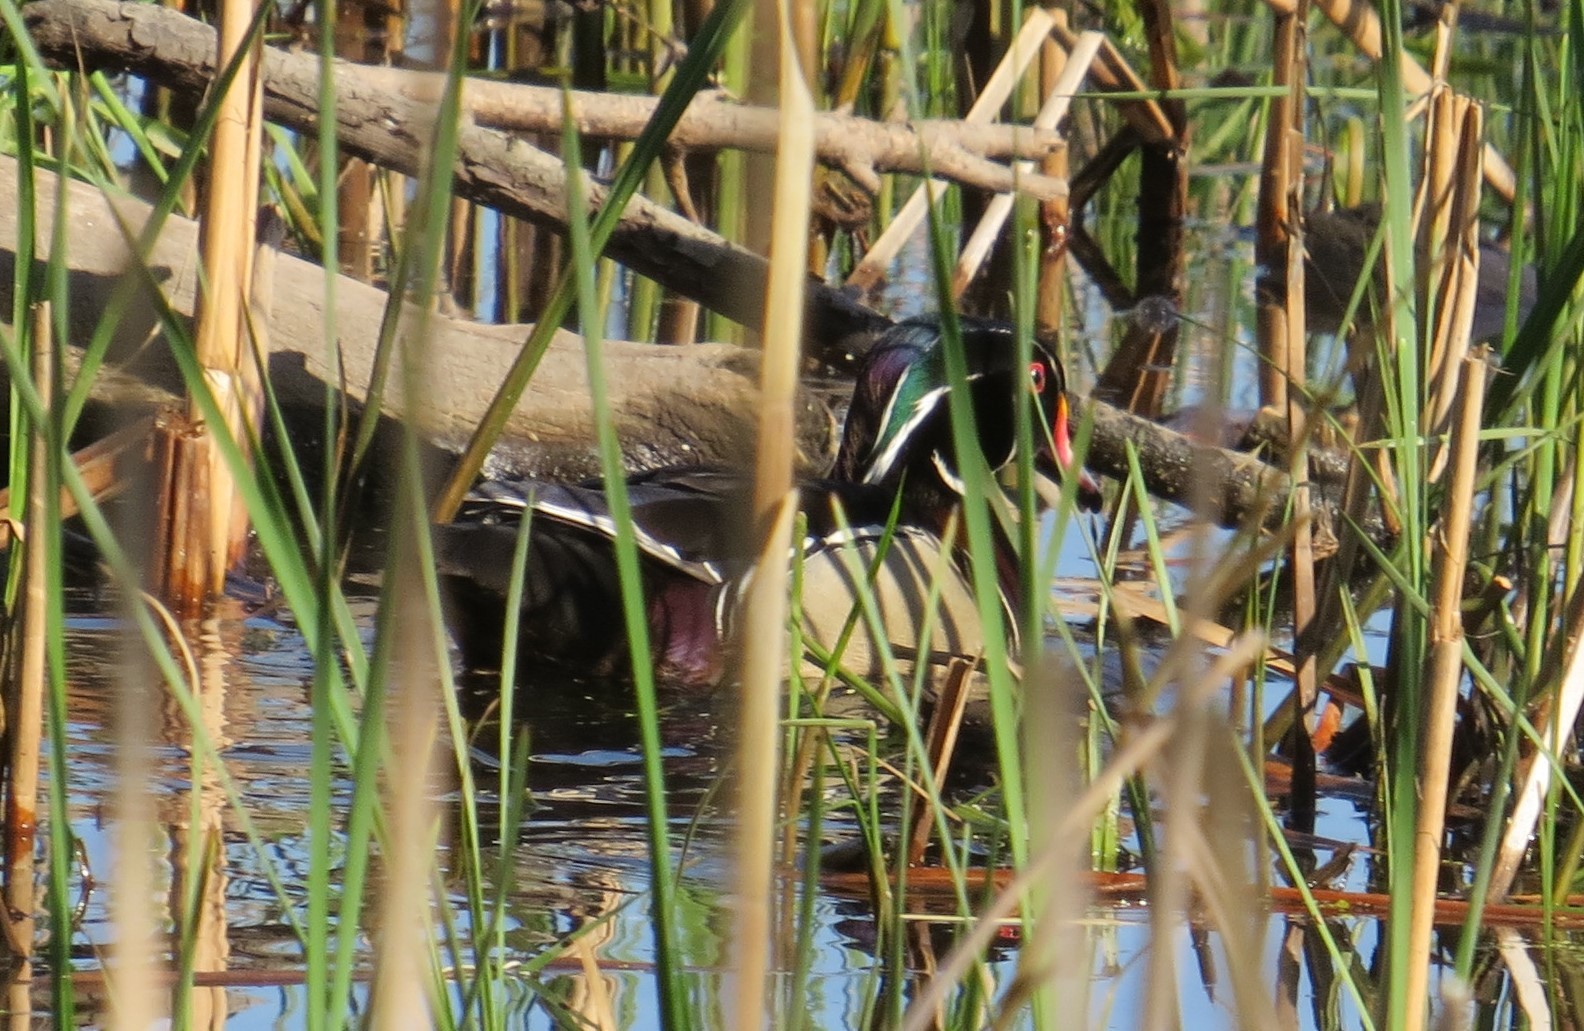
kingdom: Animalia
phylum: Chordata
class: Aves
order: Anseriformes
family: Anatidae
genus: Aix
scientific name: Aix sponsa
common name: Wood duck
